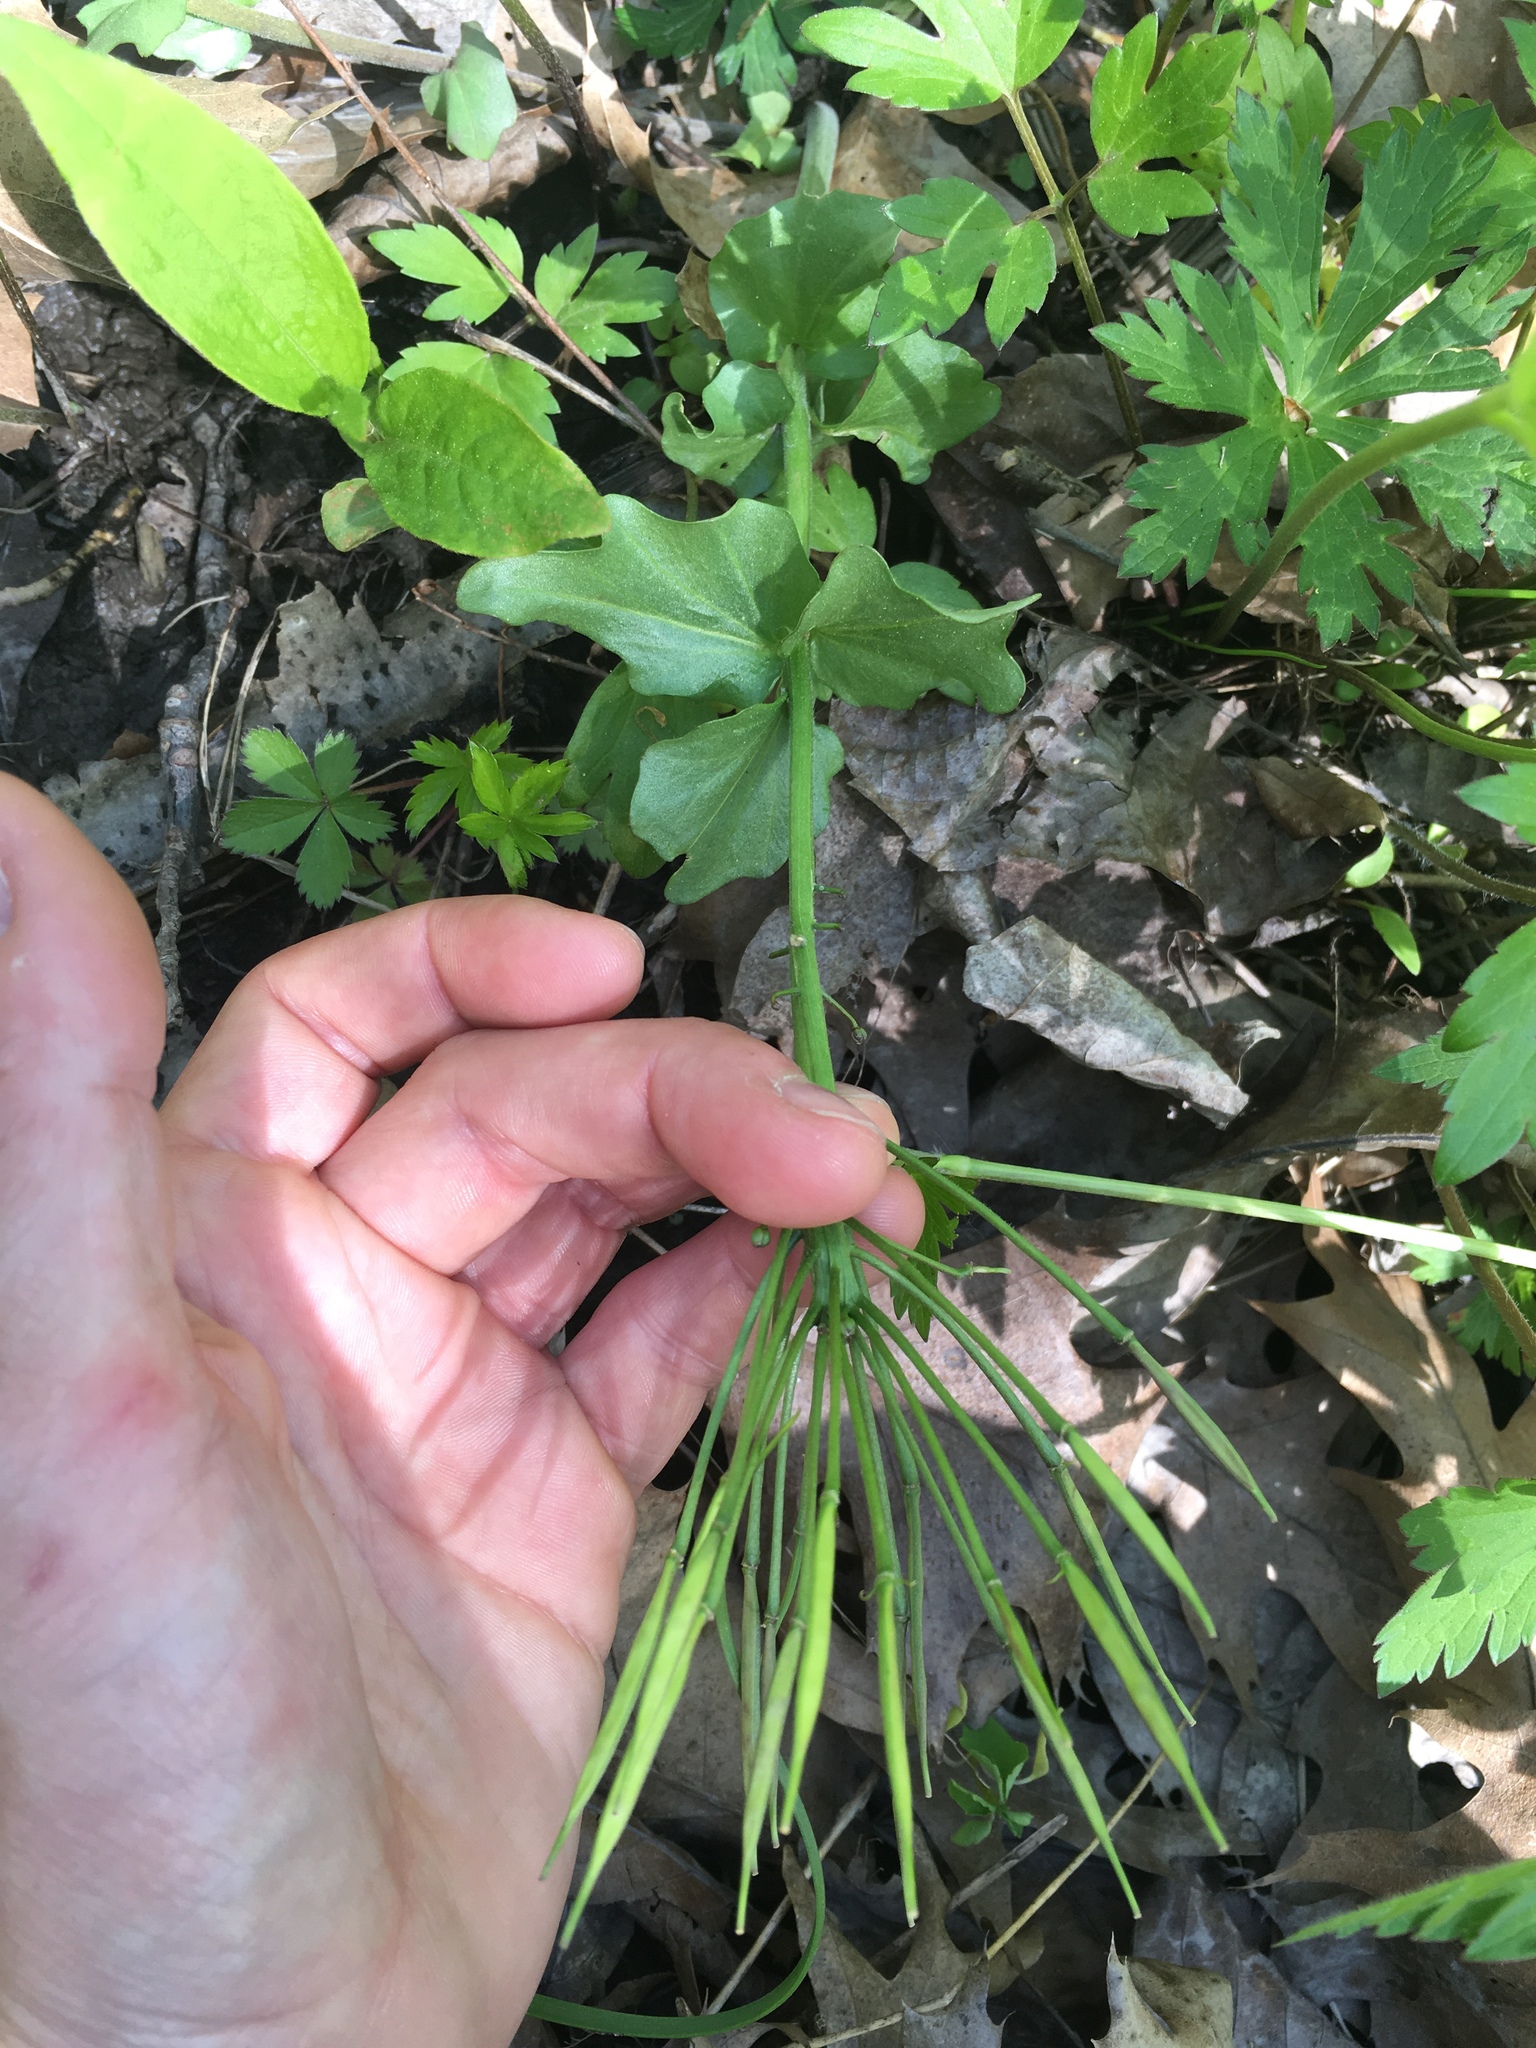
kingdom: Plantae
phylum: Tracheophyta
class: Magnoliopsida
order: Brassicales
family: Brassicaceae
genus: Cardamine
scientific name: Cardamine bulbosa
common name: Spring cress
